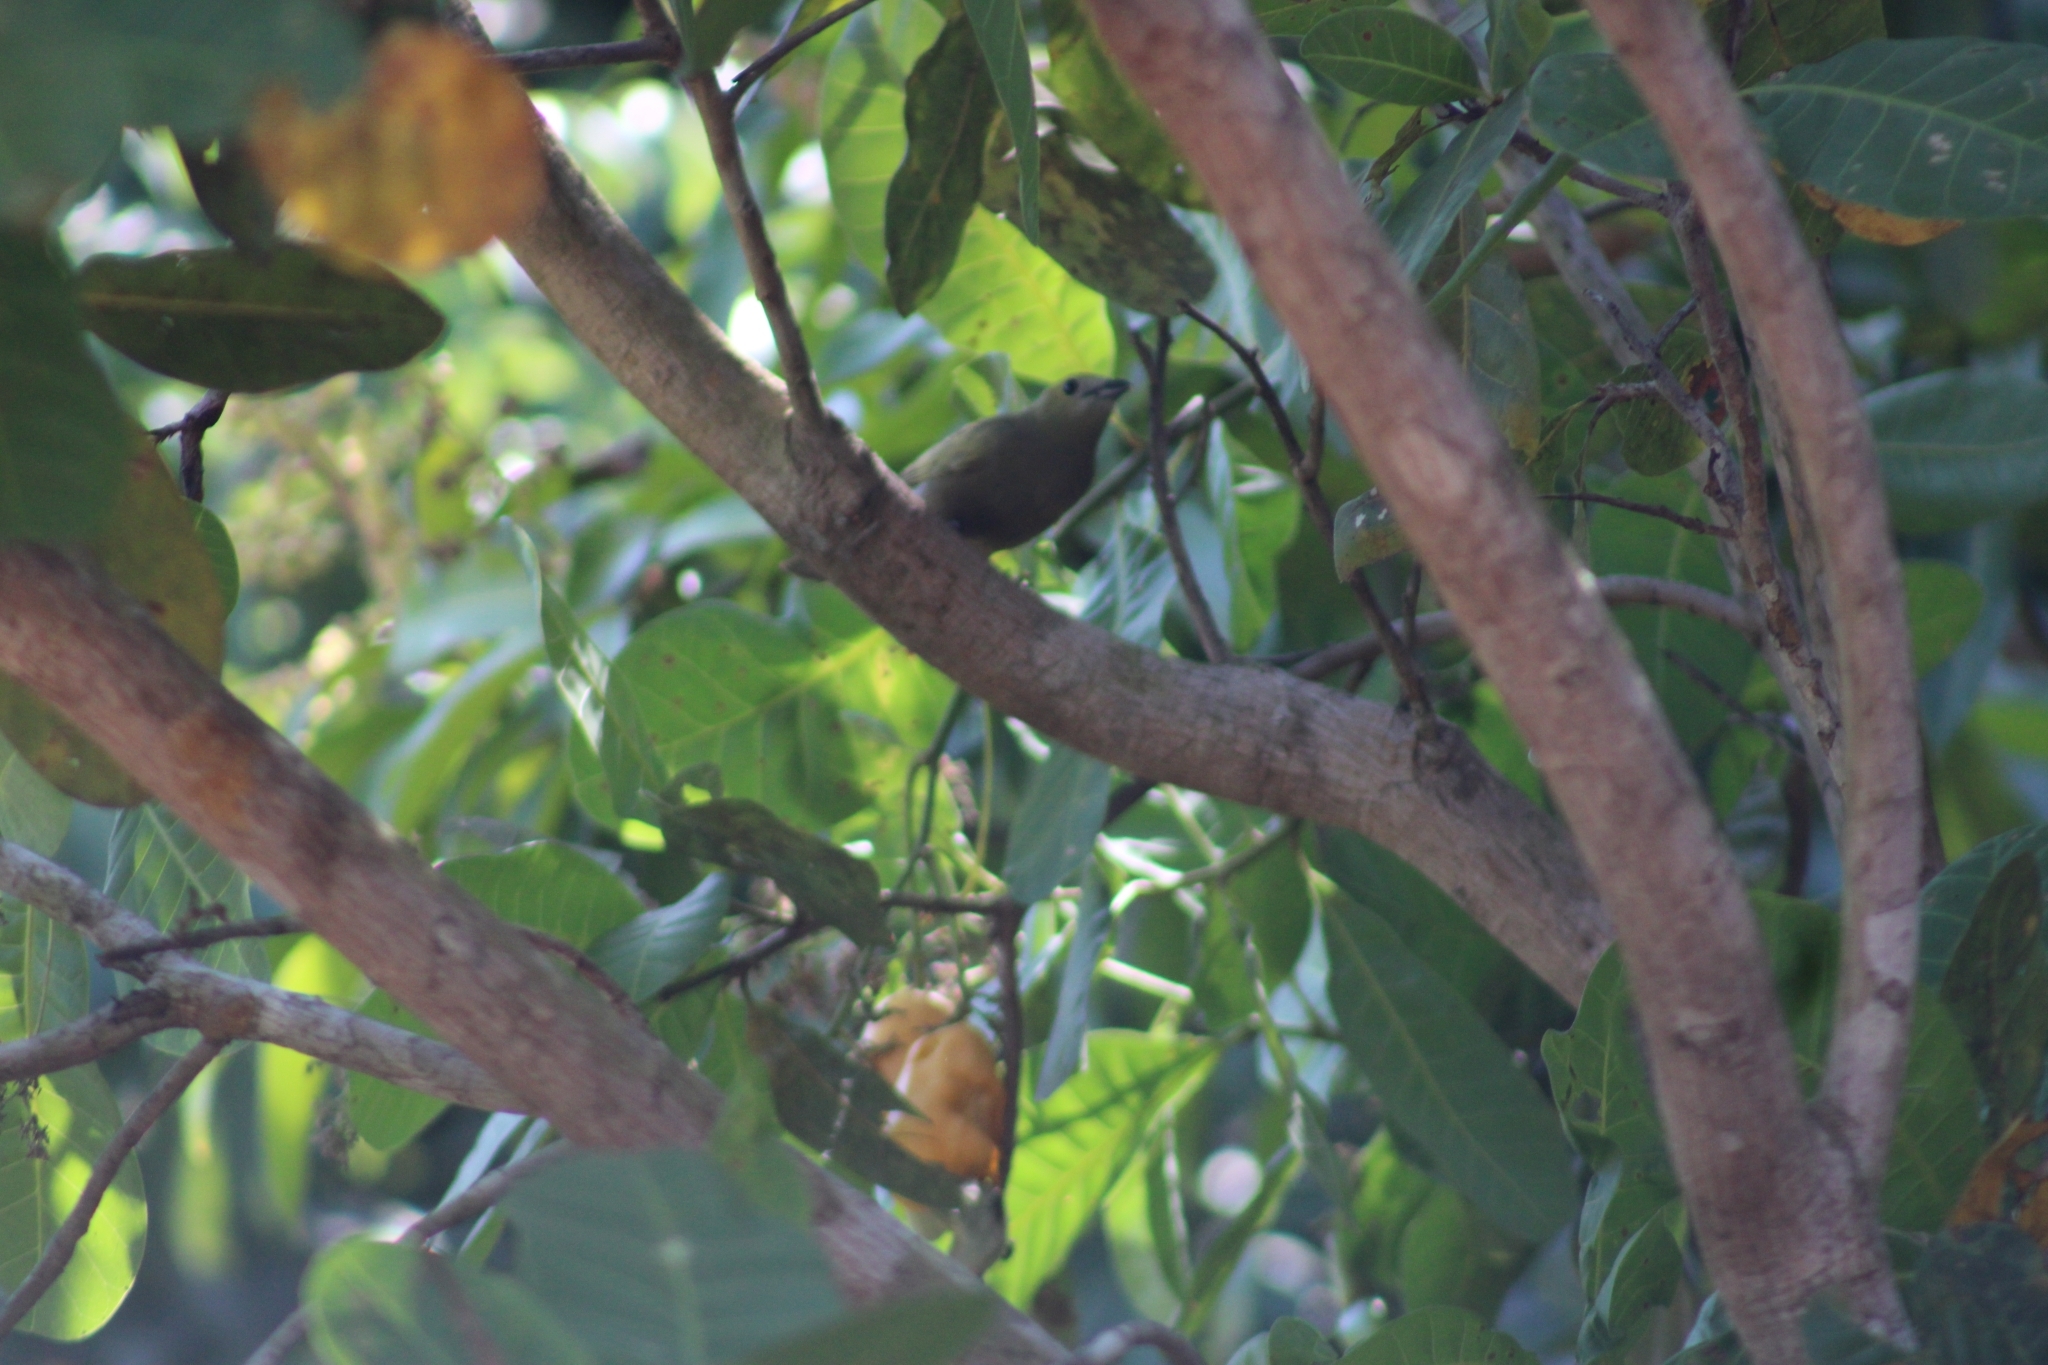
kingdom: Animalia
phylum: Chordata
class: Aves
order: Passeriformes
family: Thraupidae
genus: Thraupis
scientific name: Thraupis palmarum
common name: Palm tanager
